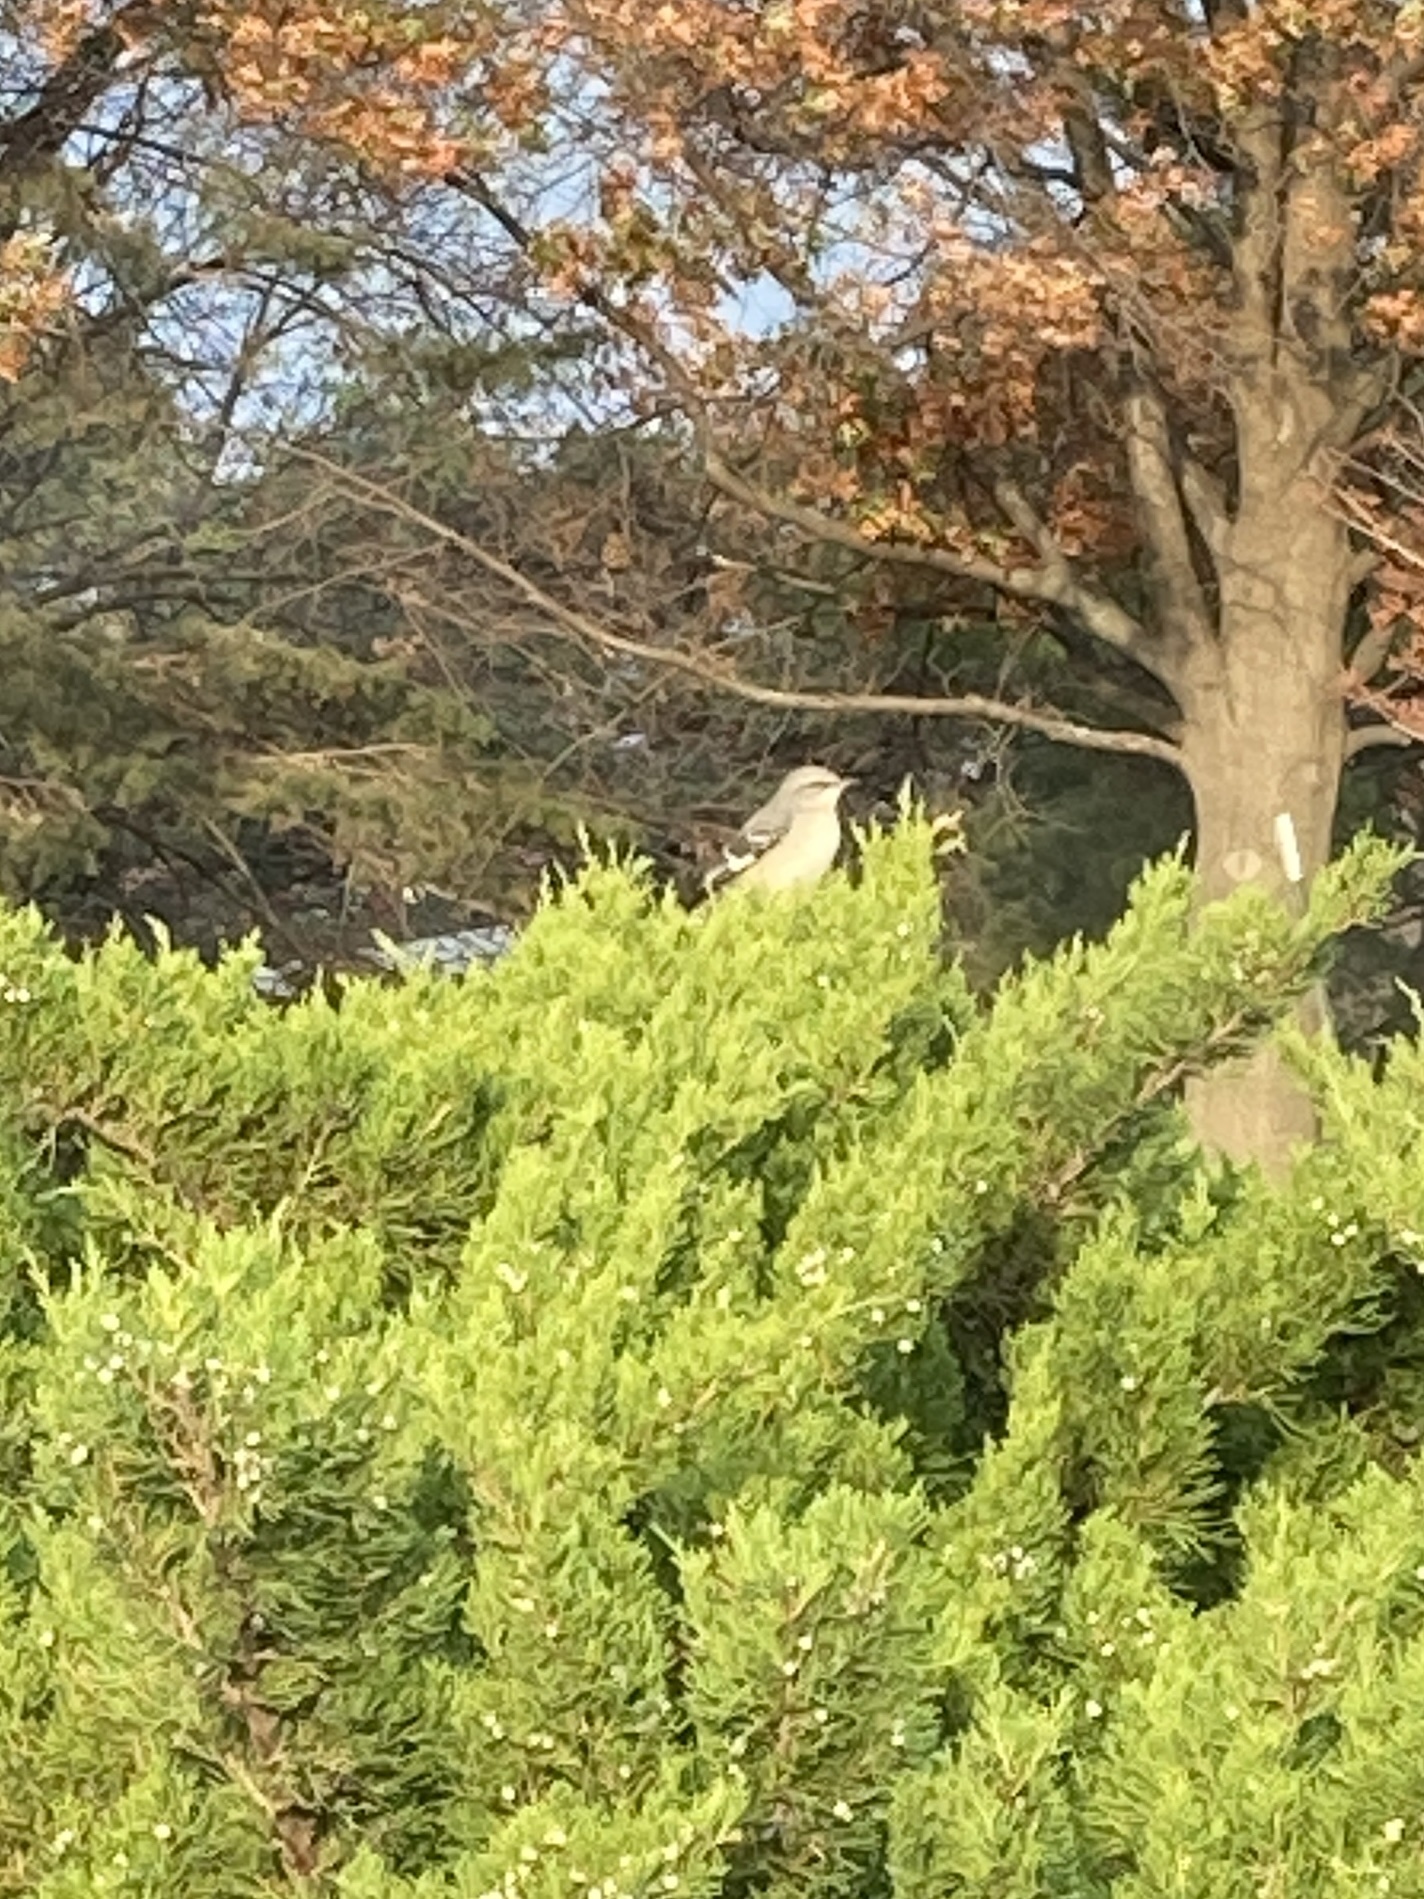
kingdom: Animalia
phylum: Chordata
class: Aves
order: Passeriformes
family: Mimidae
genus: Mimus
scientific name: Mimus polyglottos
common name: Northern mockingbird
